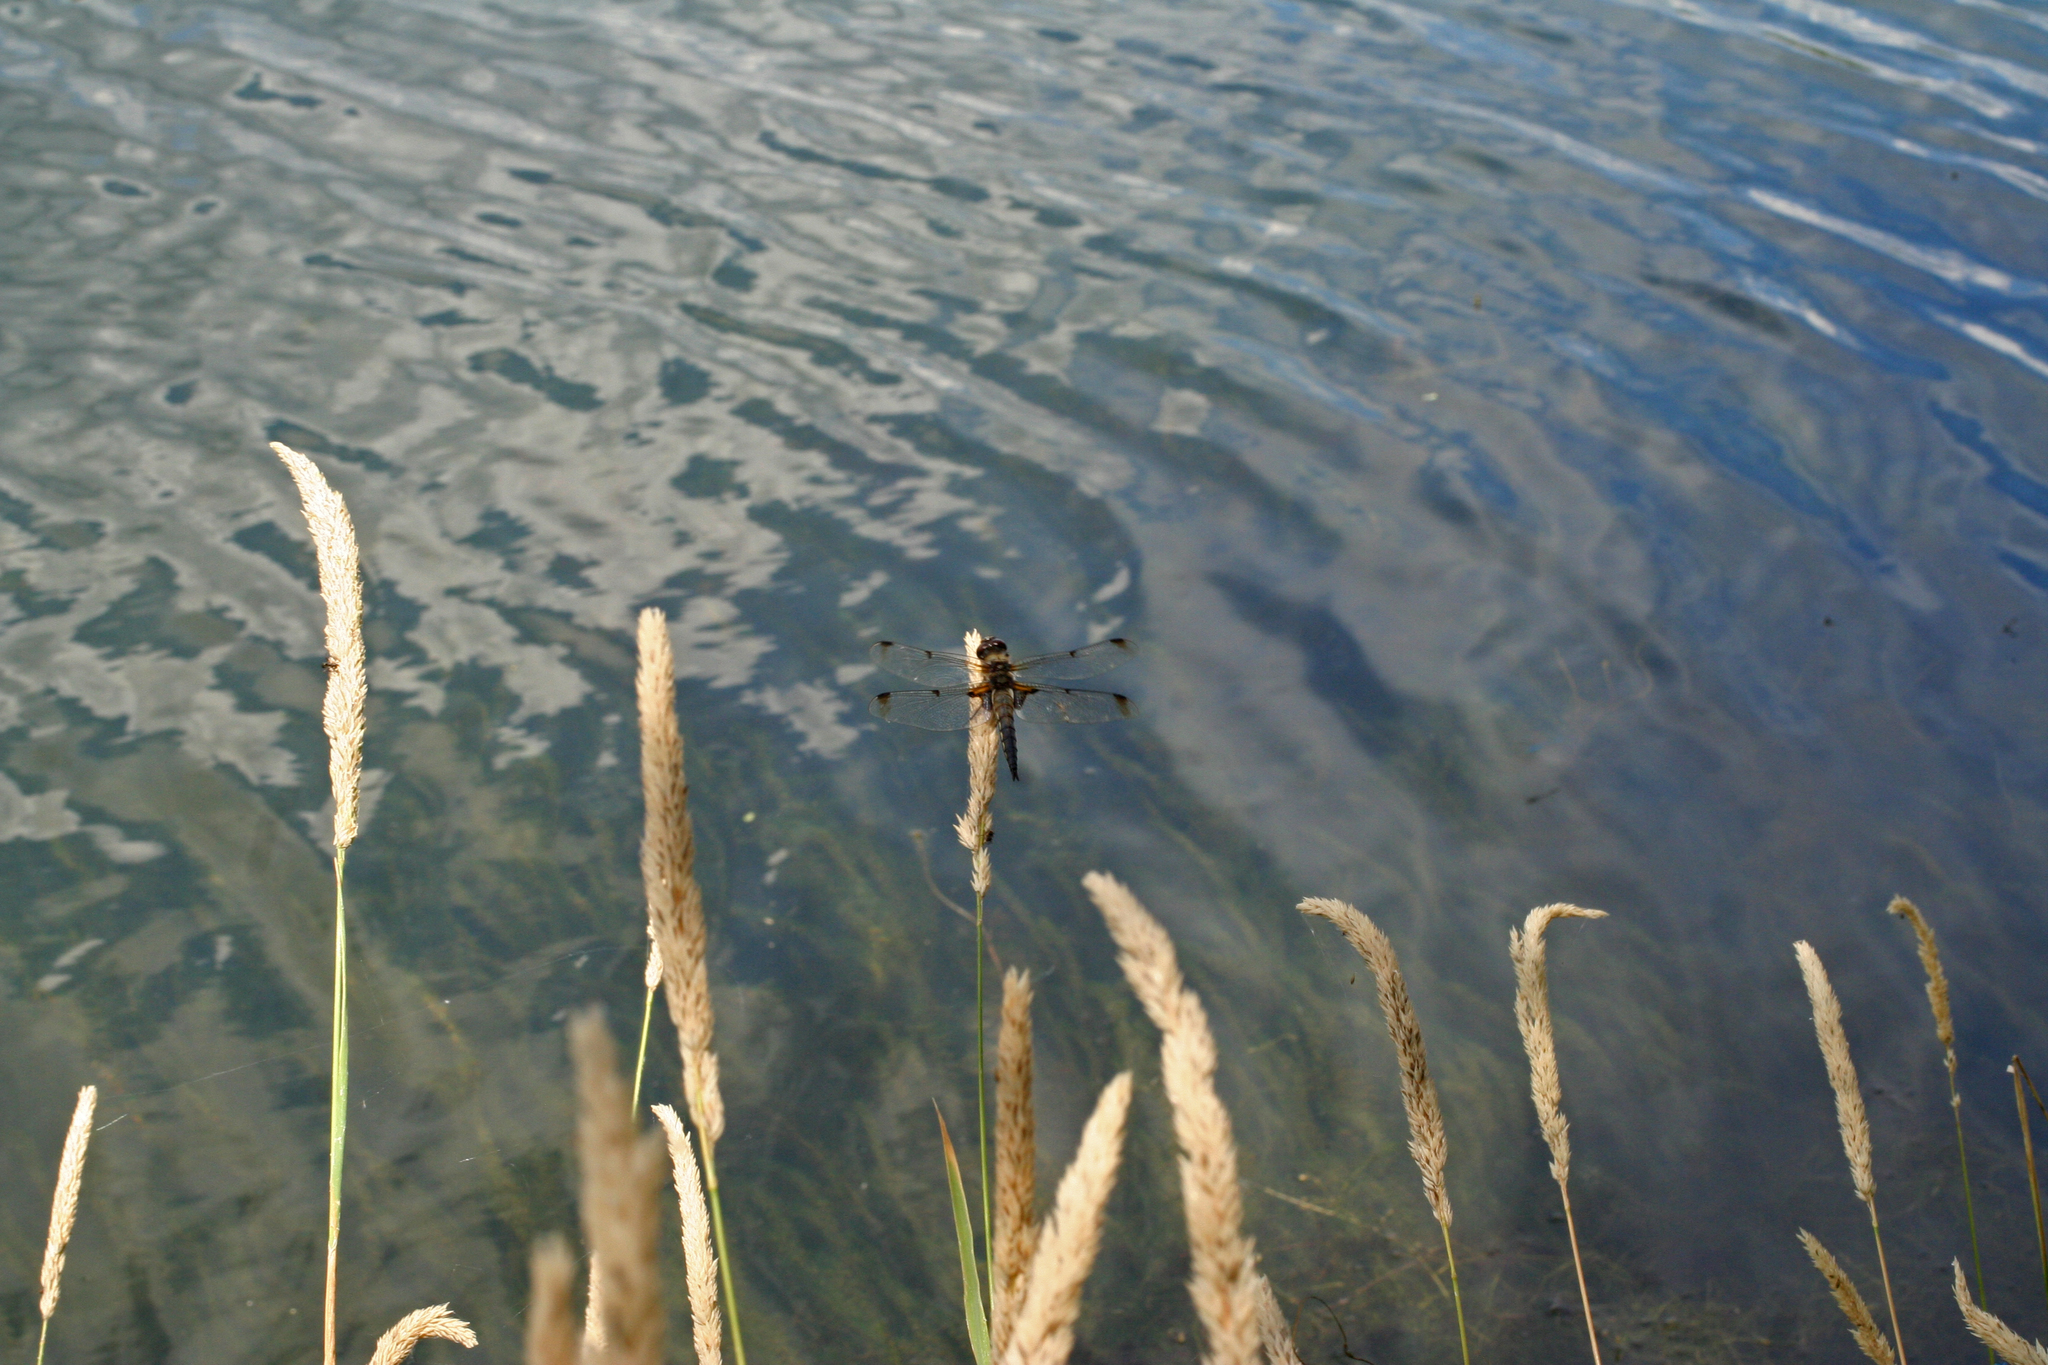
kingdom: Plantae
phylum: Tracheophyta
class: Liliopsida
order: Poales
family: Poaceae
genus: Phalaris
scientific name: Phalaris arundinacea
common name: Reed canary-grass
